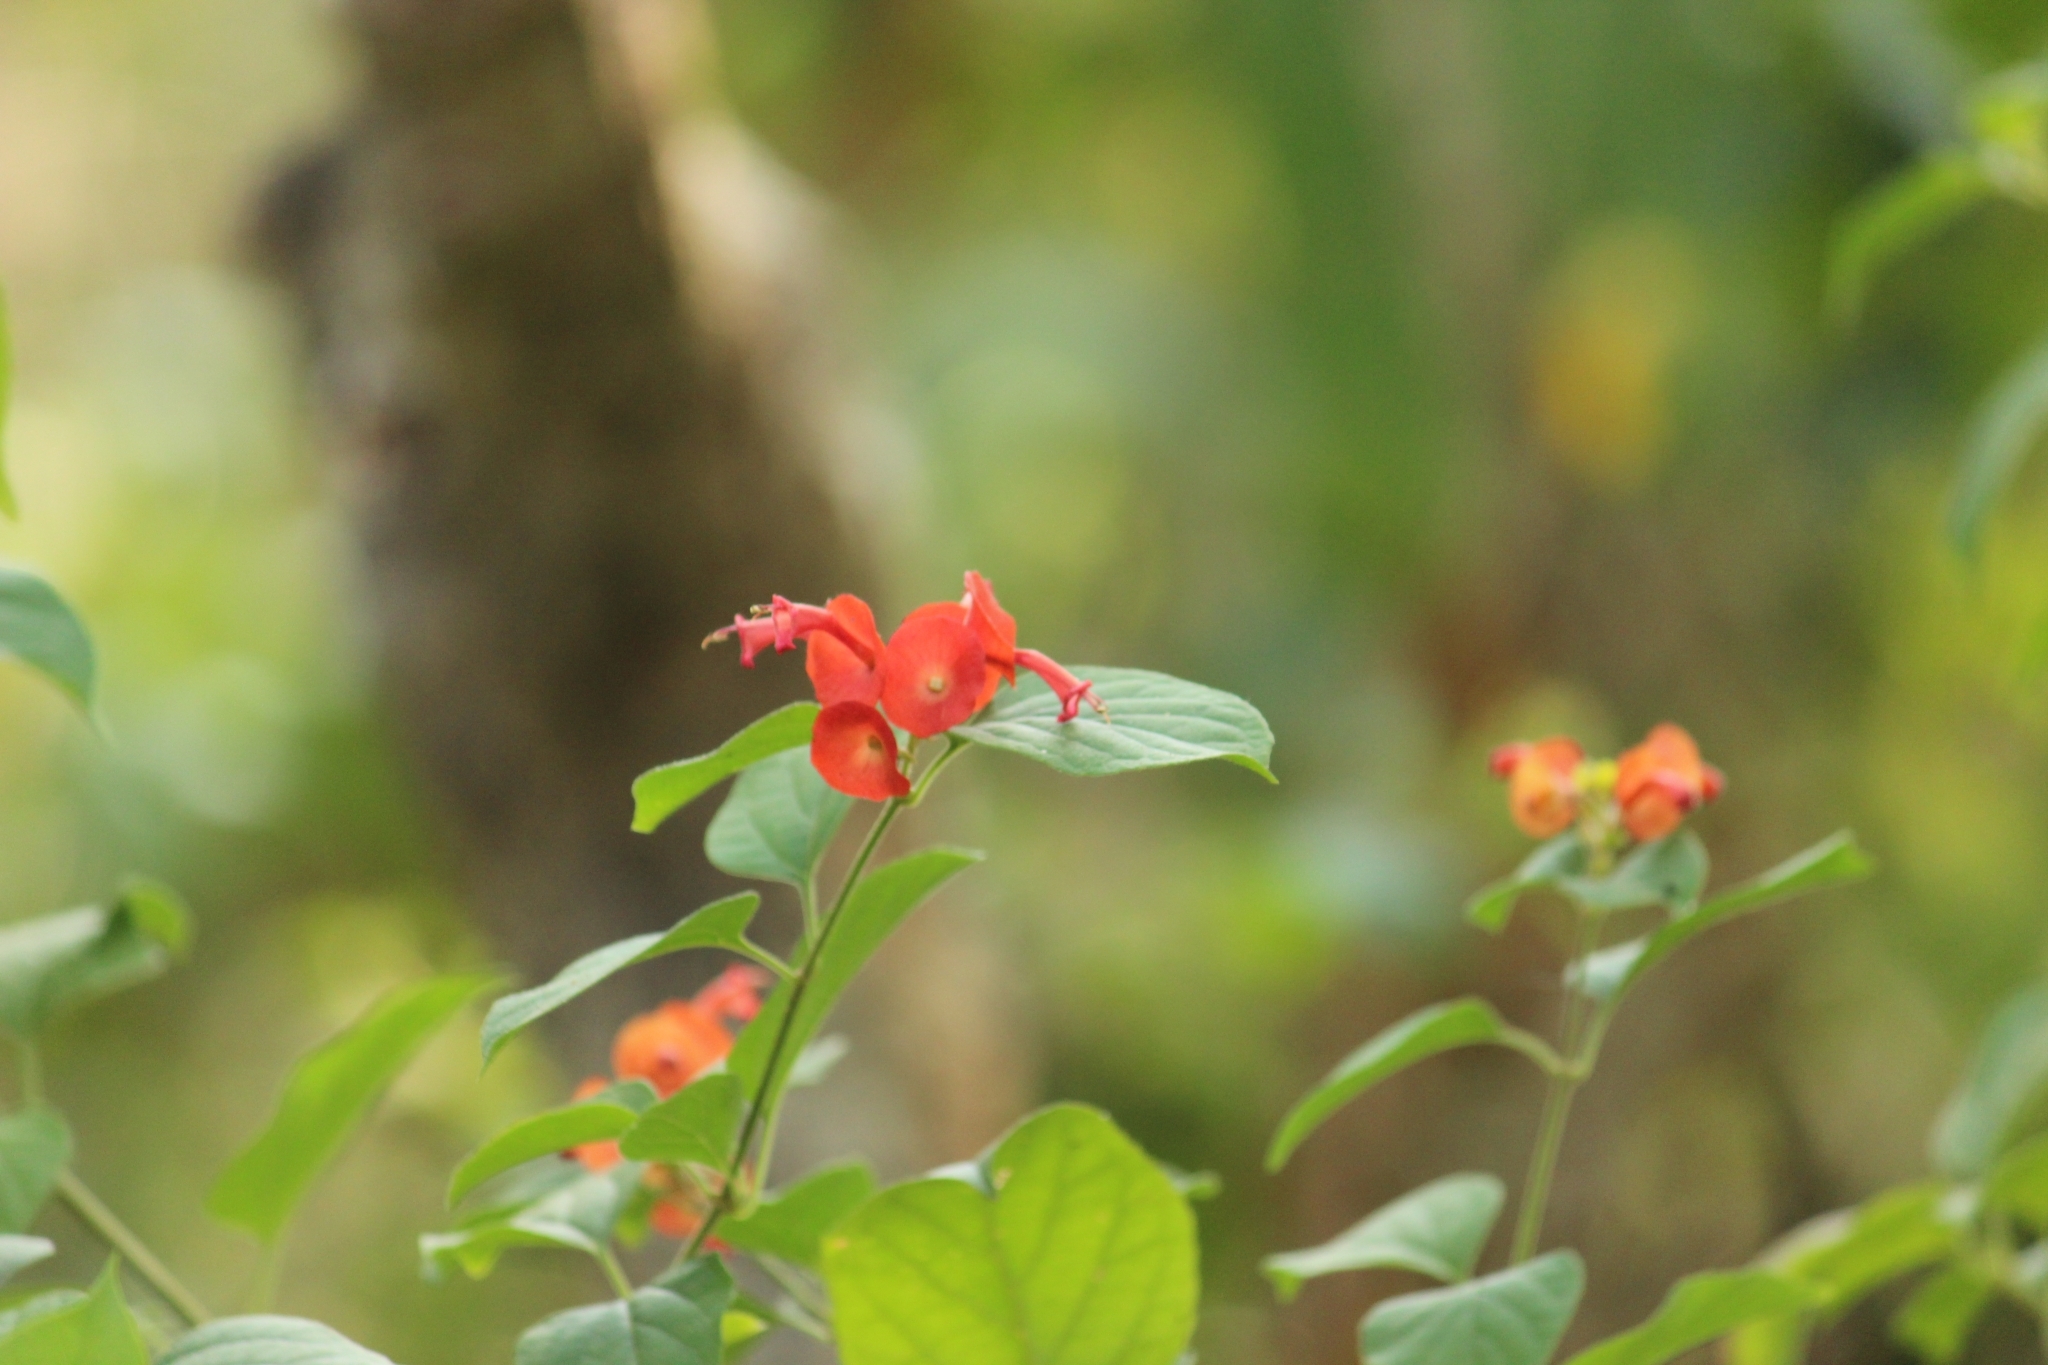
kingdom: Plantae
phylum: Tracheophyta
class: Magnoliopsida
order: Lamiales
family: Lamiaceae
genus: Holmskioldia
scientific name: Holmskioldia sanguinea
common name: Chinese hatplant
